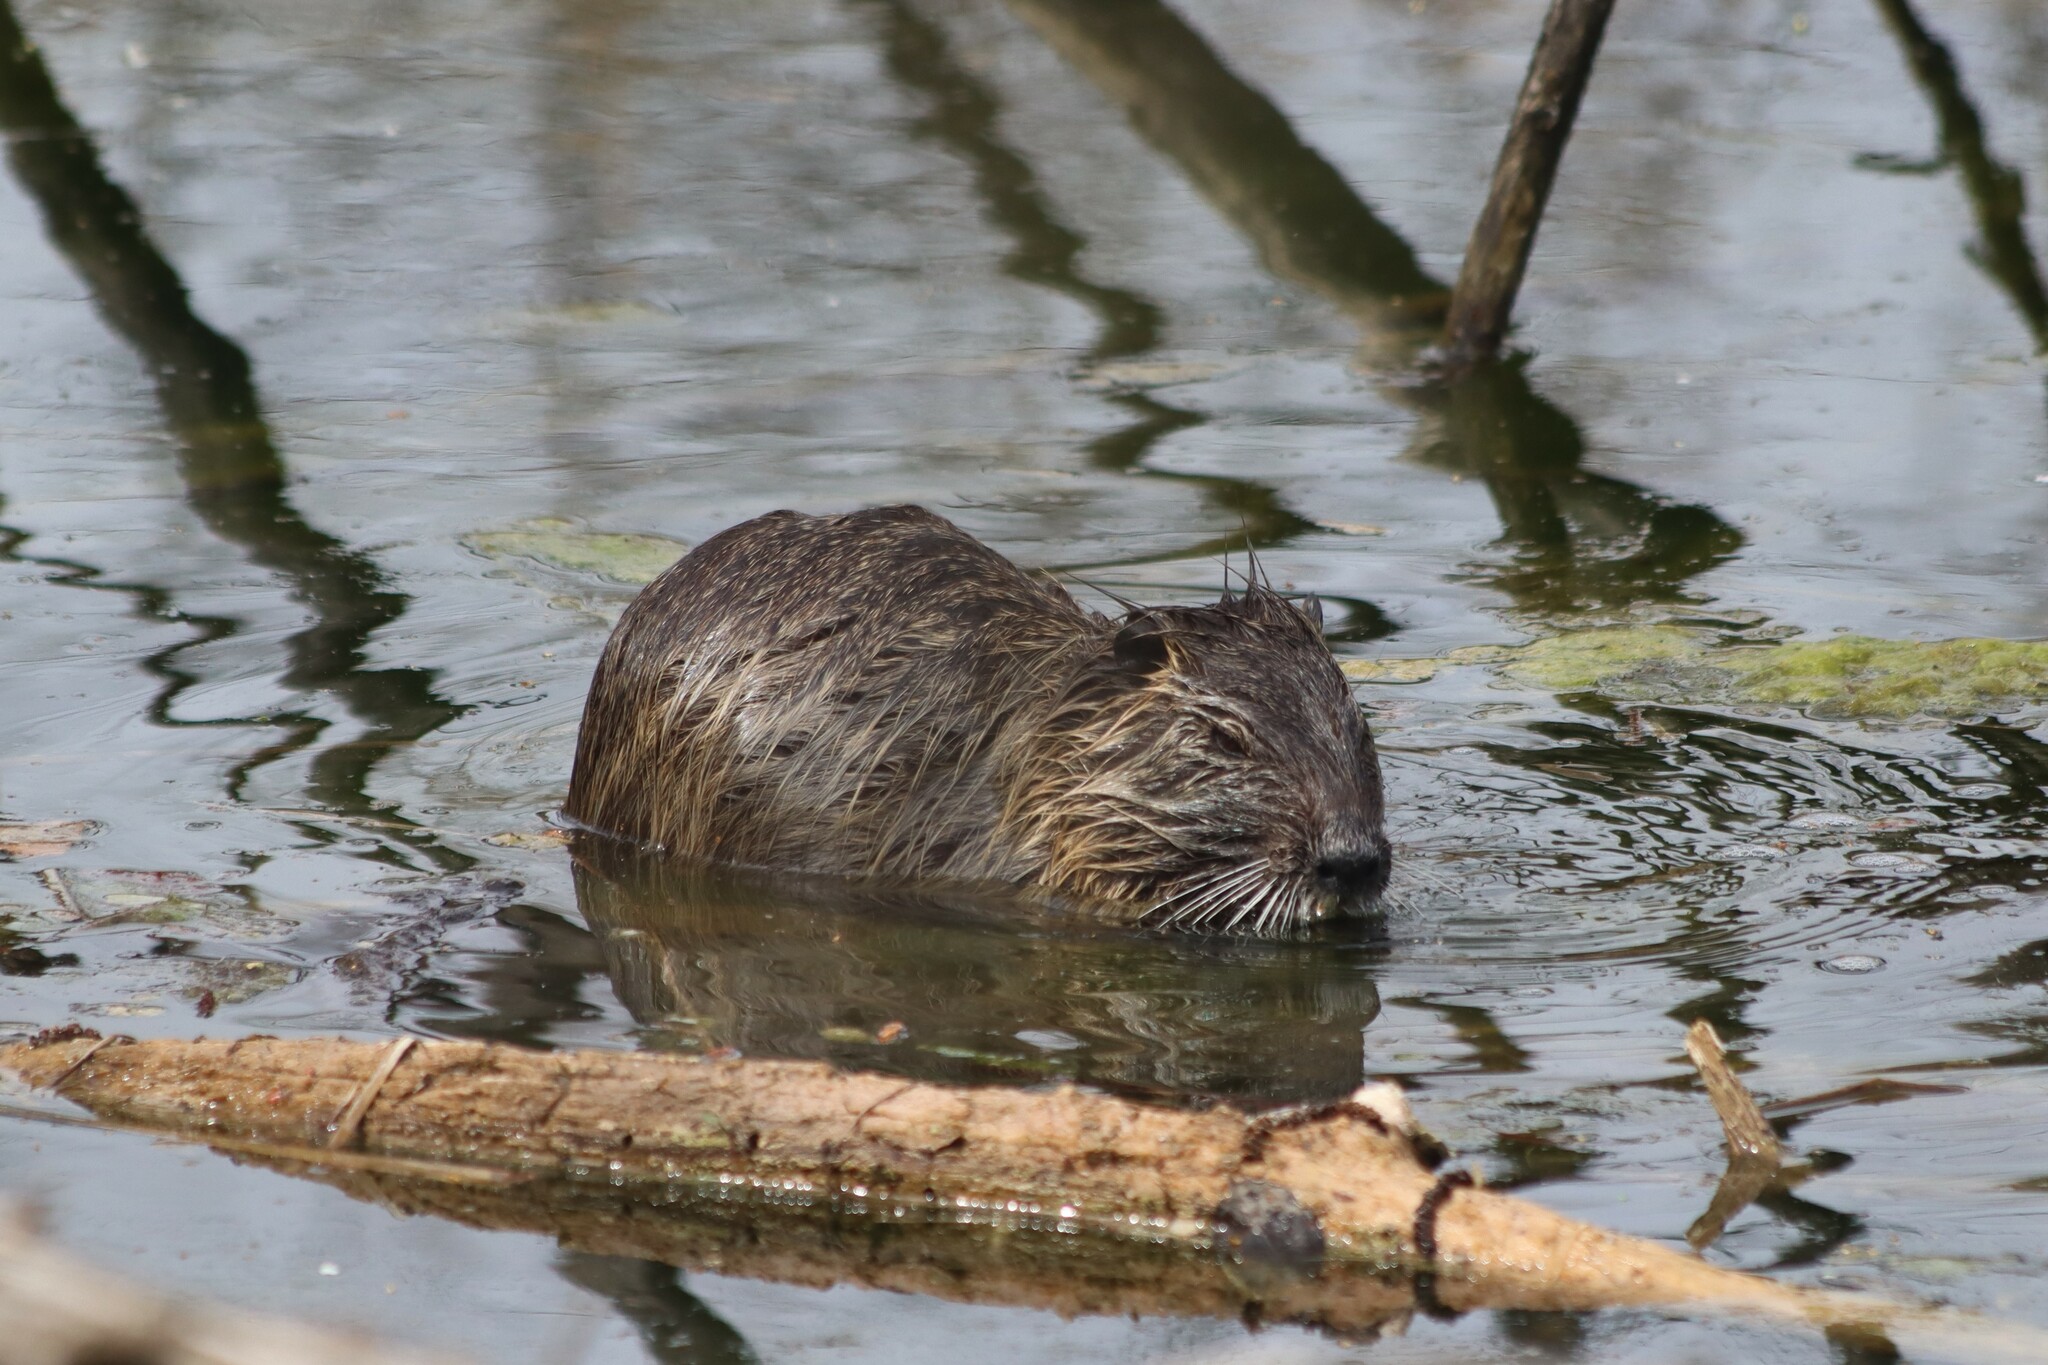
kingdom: Animalia
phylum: Chordata
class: Mammalia
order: Rodentia
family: Myocastoridae
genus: Myocastor
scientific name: Myocastor coypus
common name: Coypu
